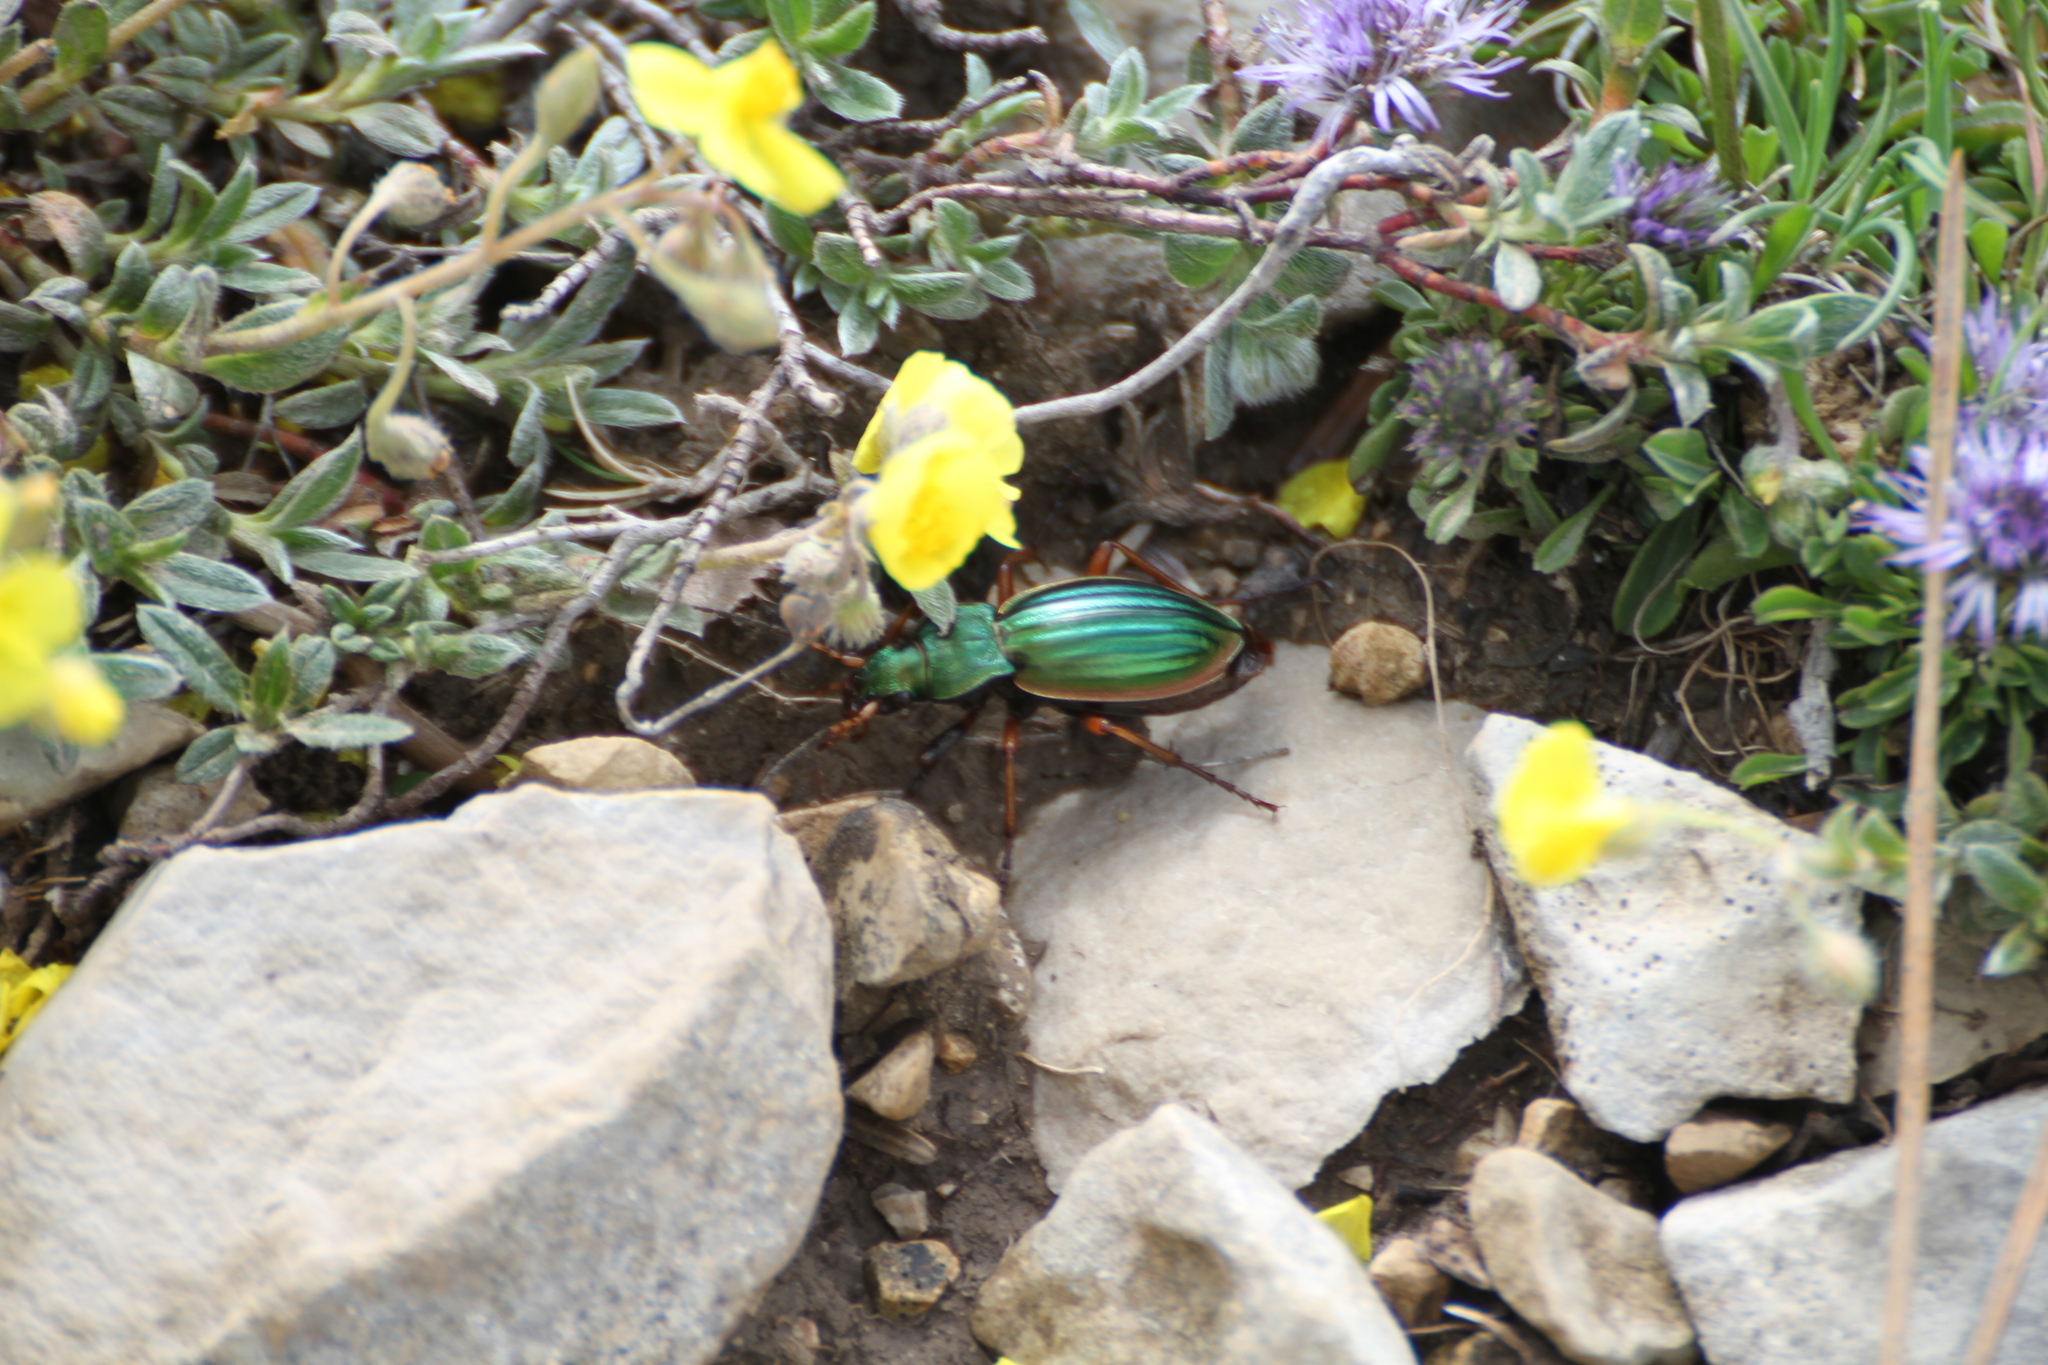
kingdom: Animalia
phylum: Arthropoda
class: Insecta
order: Coleoptera
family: Carabidae
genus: Carabus
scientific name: Carabus auratus
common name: Golden ground beetle
